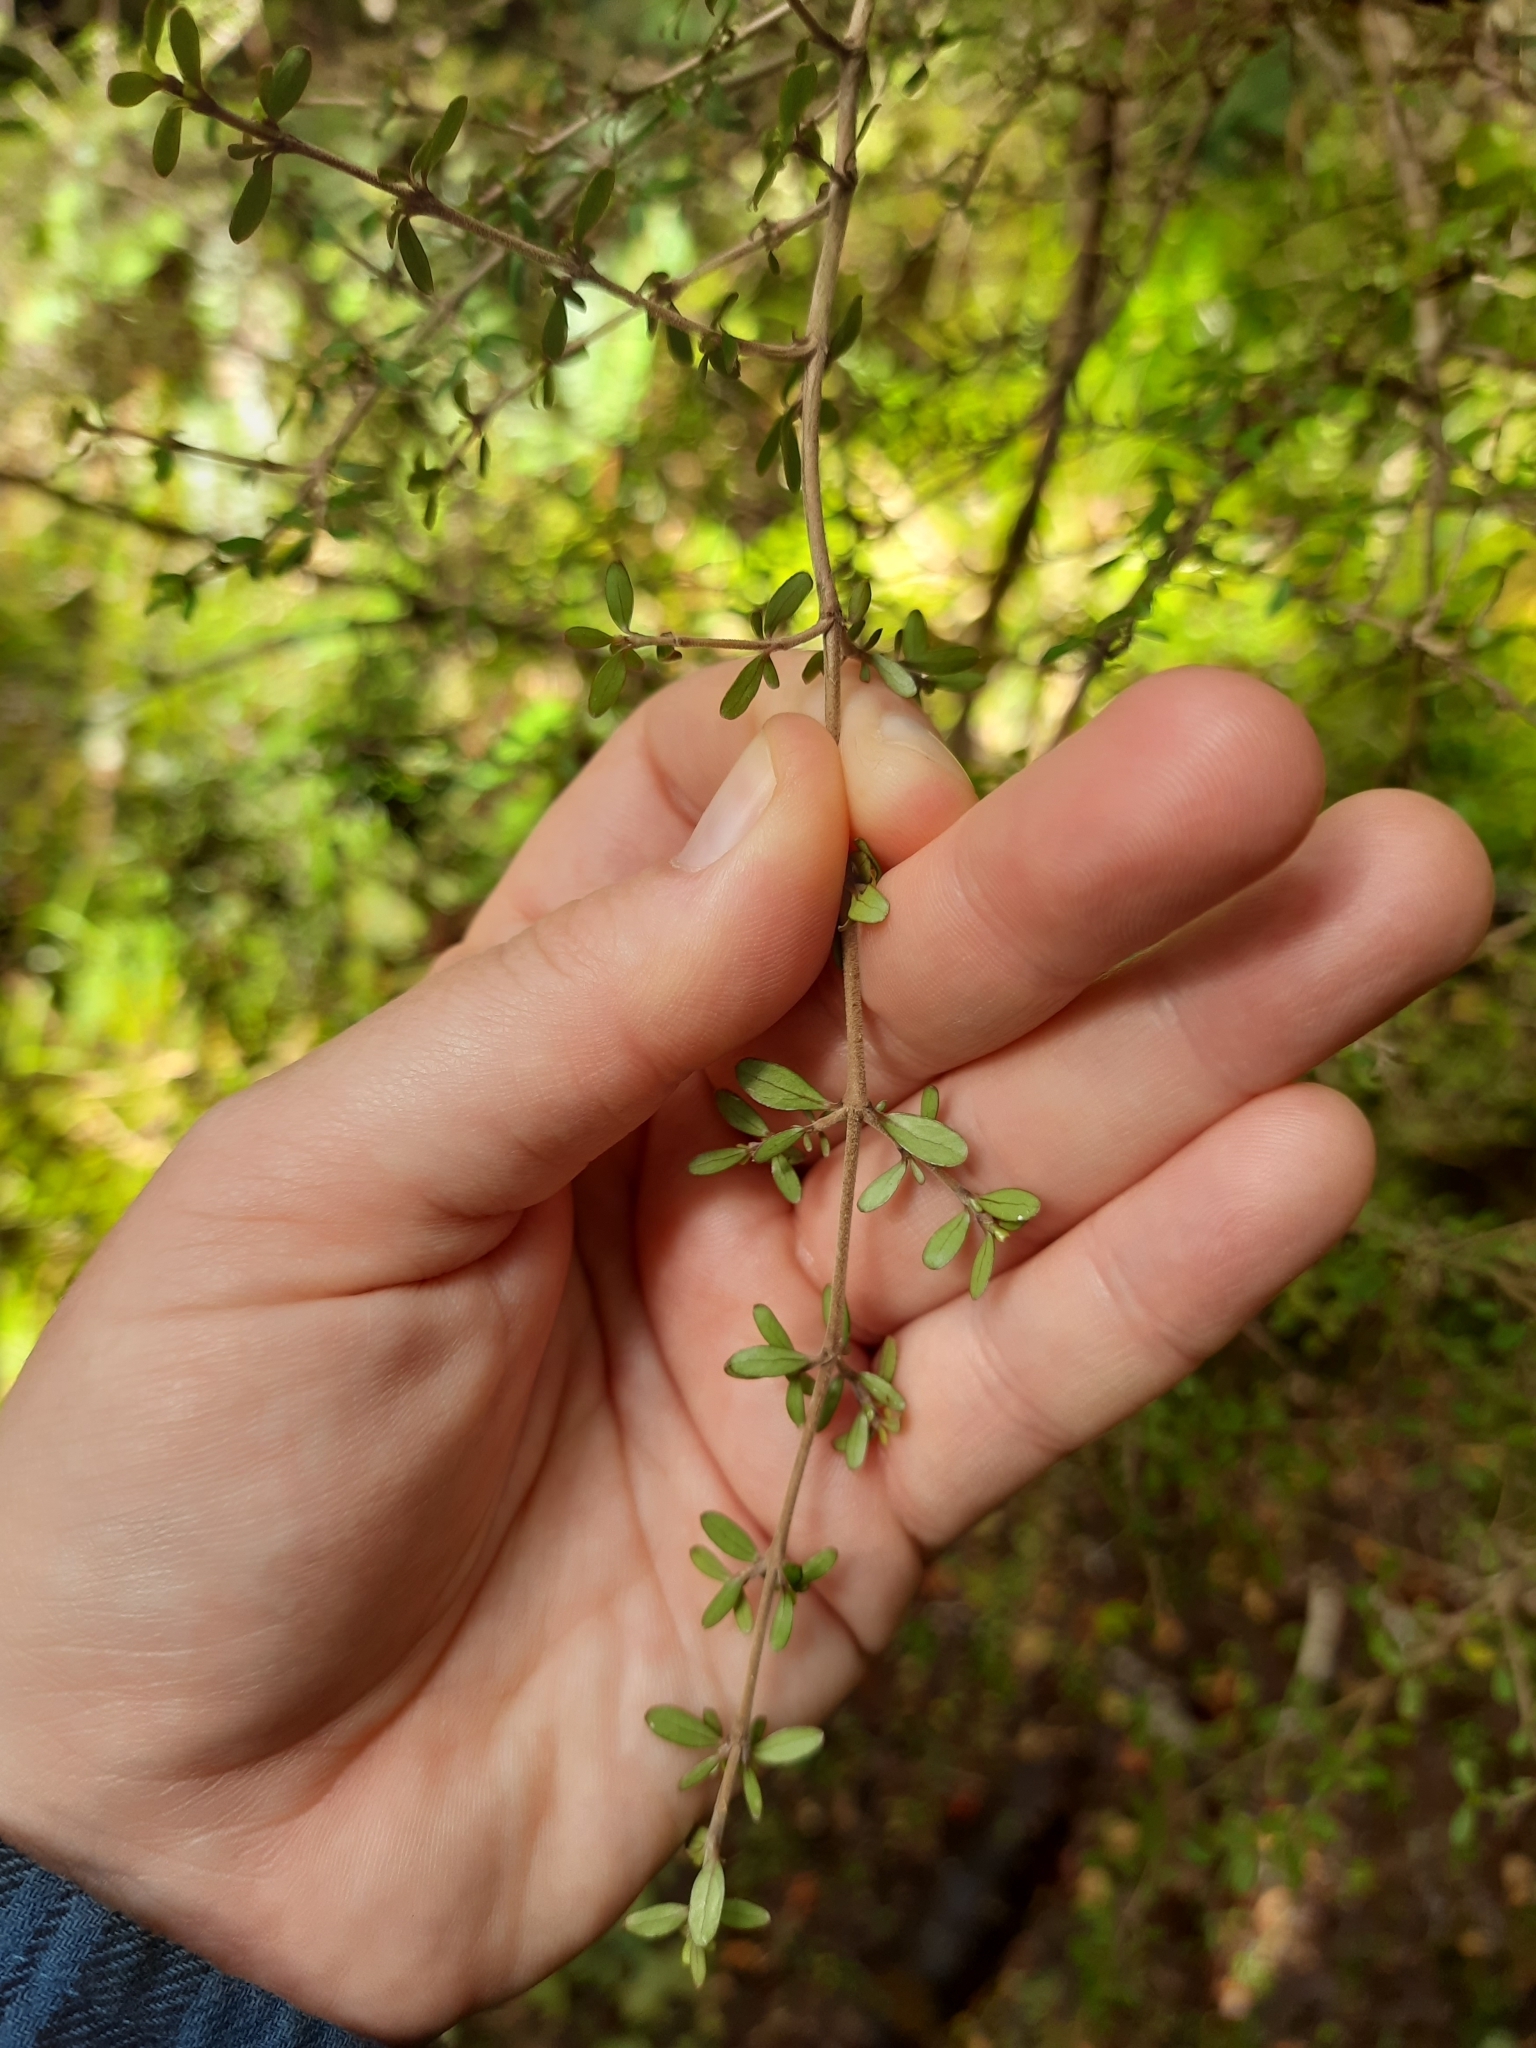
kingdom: Plantae
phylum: Tracheophyta
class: Magnoliopsida
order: Gentianales
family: Rubiaceae
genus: Coprosma
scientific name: Coprosma dumosa
